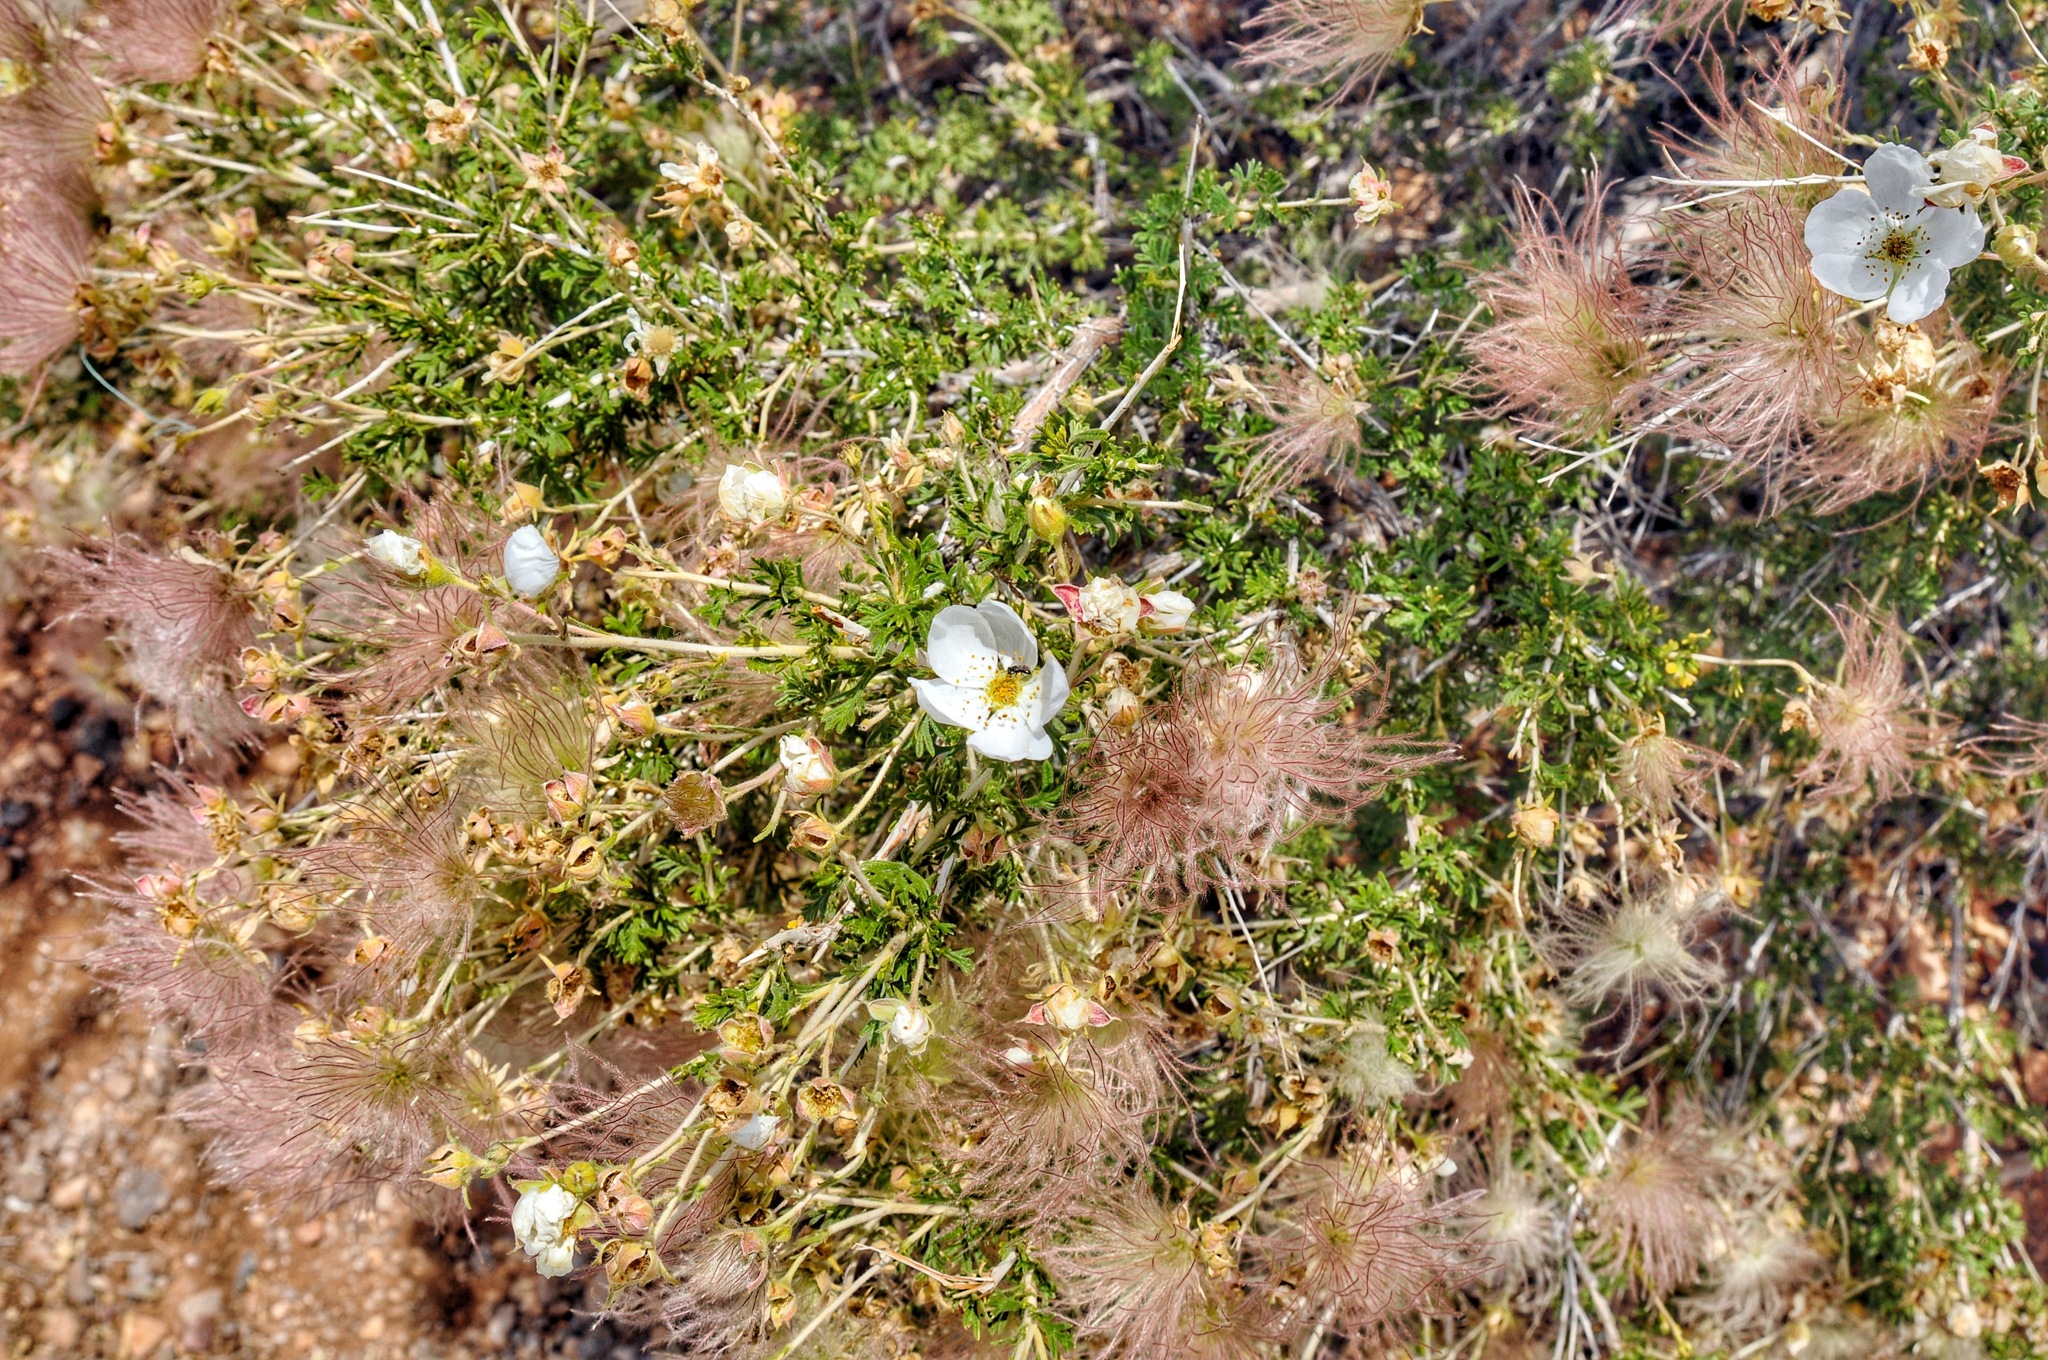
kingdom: Plantae
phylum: Tracheophyta
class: Magnoliopsida
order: Rosales
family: Rosaceae
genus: Fallugia
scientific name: Fallugia paradoxa
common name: Apache-plume
